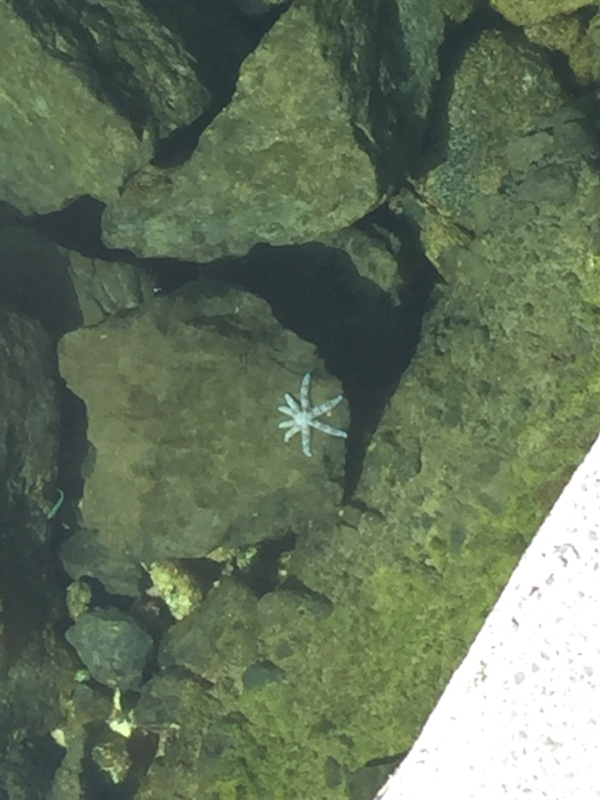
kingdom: Animalia
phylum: Echinodermata
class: Asteroidea
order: Forcipulatida
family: Asteriidae
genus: Marthasterias
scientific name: Marthasterias glacialis
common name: Spiny starfish
